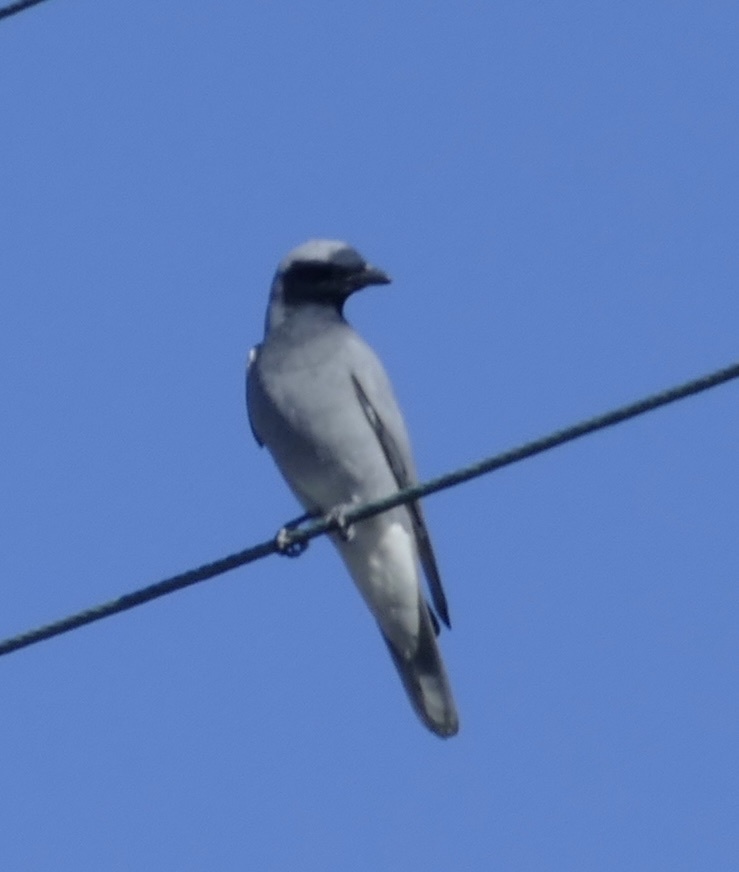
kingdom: Animalia
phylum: Chordata
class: Aves
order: Passeriformes
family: Campephagidae
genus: Coracina
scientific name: Coracina novaehollandiae
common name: Black-faced cuckooshrike
